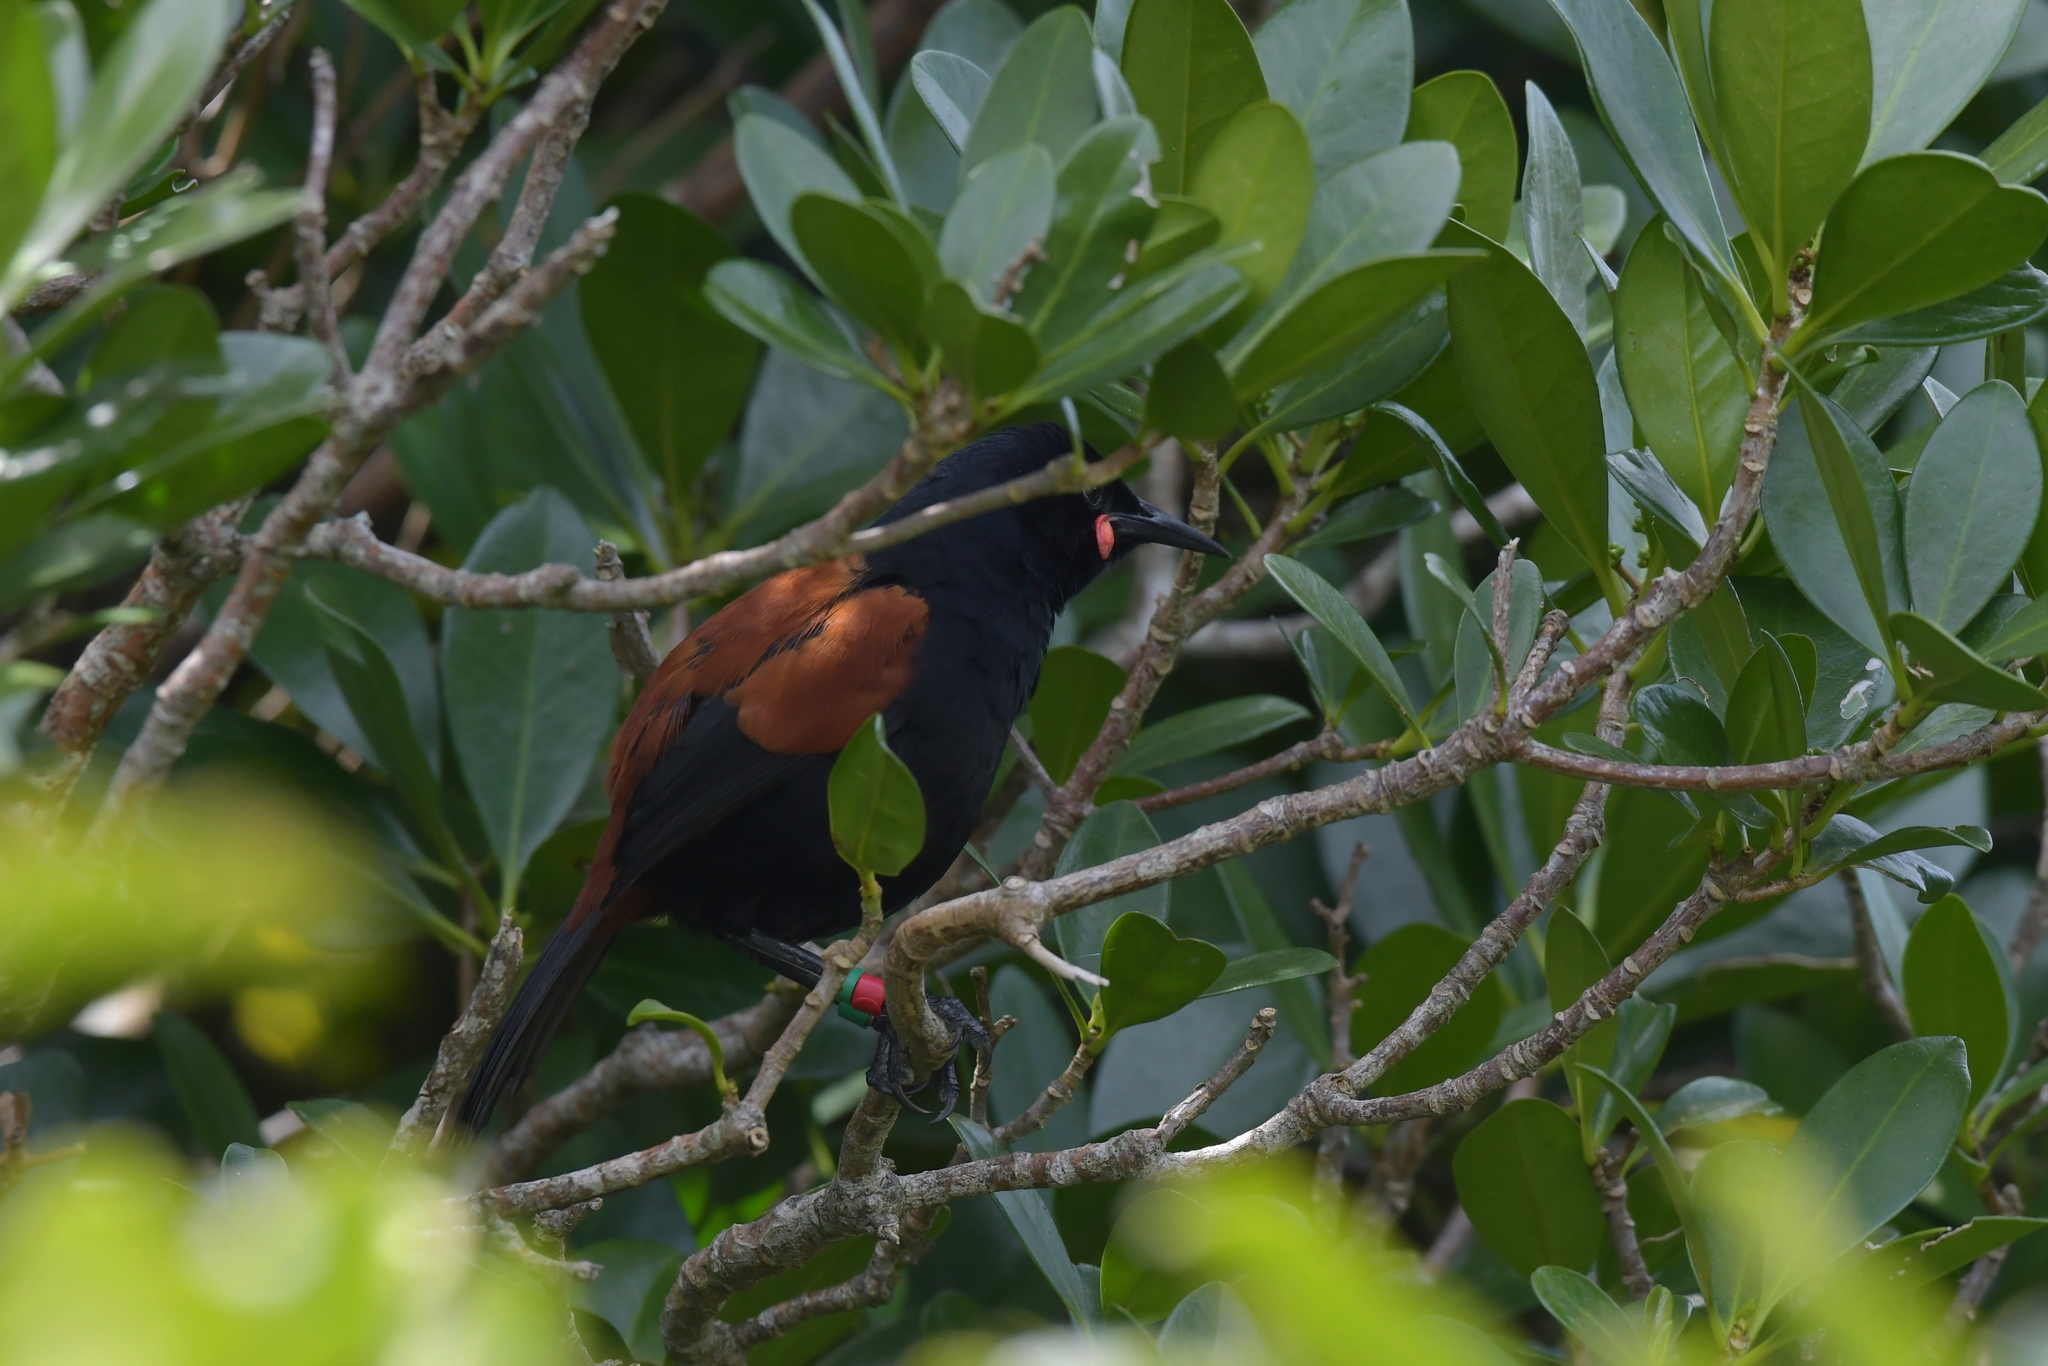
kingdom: Animalia
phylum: Chordata
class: Aves
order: Passeriformes
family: Callaeatidae
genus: Philesturnus
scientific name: Philesturnus carunculatus
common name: South island saddleback
